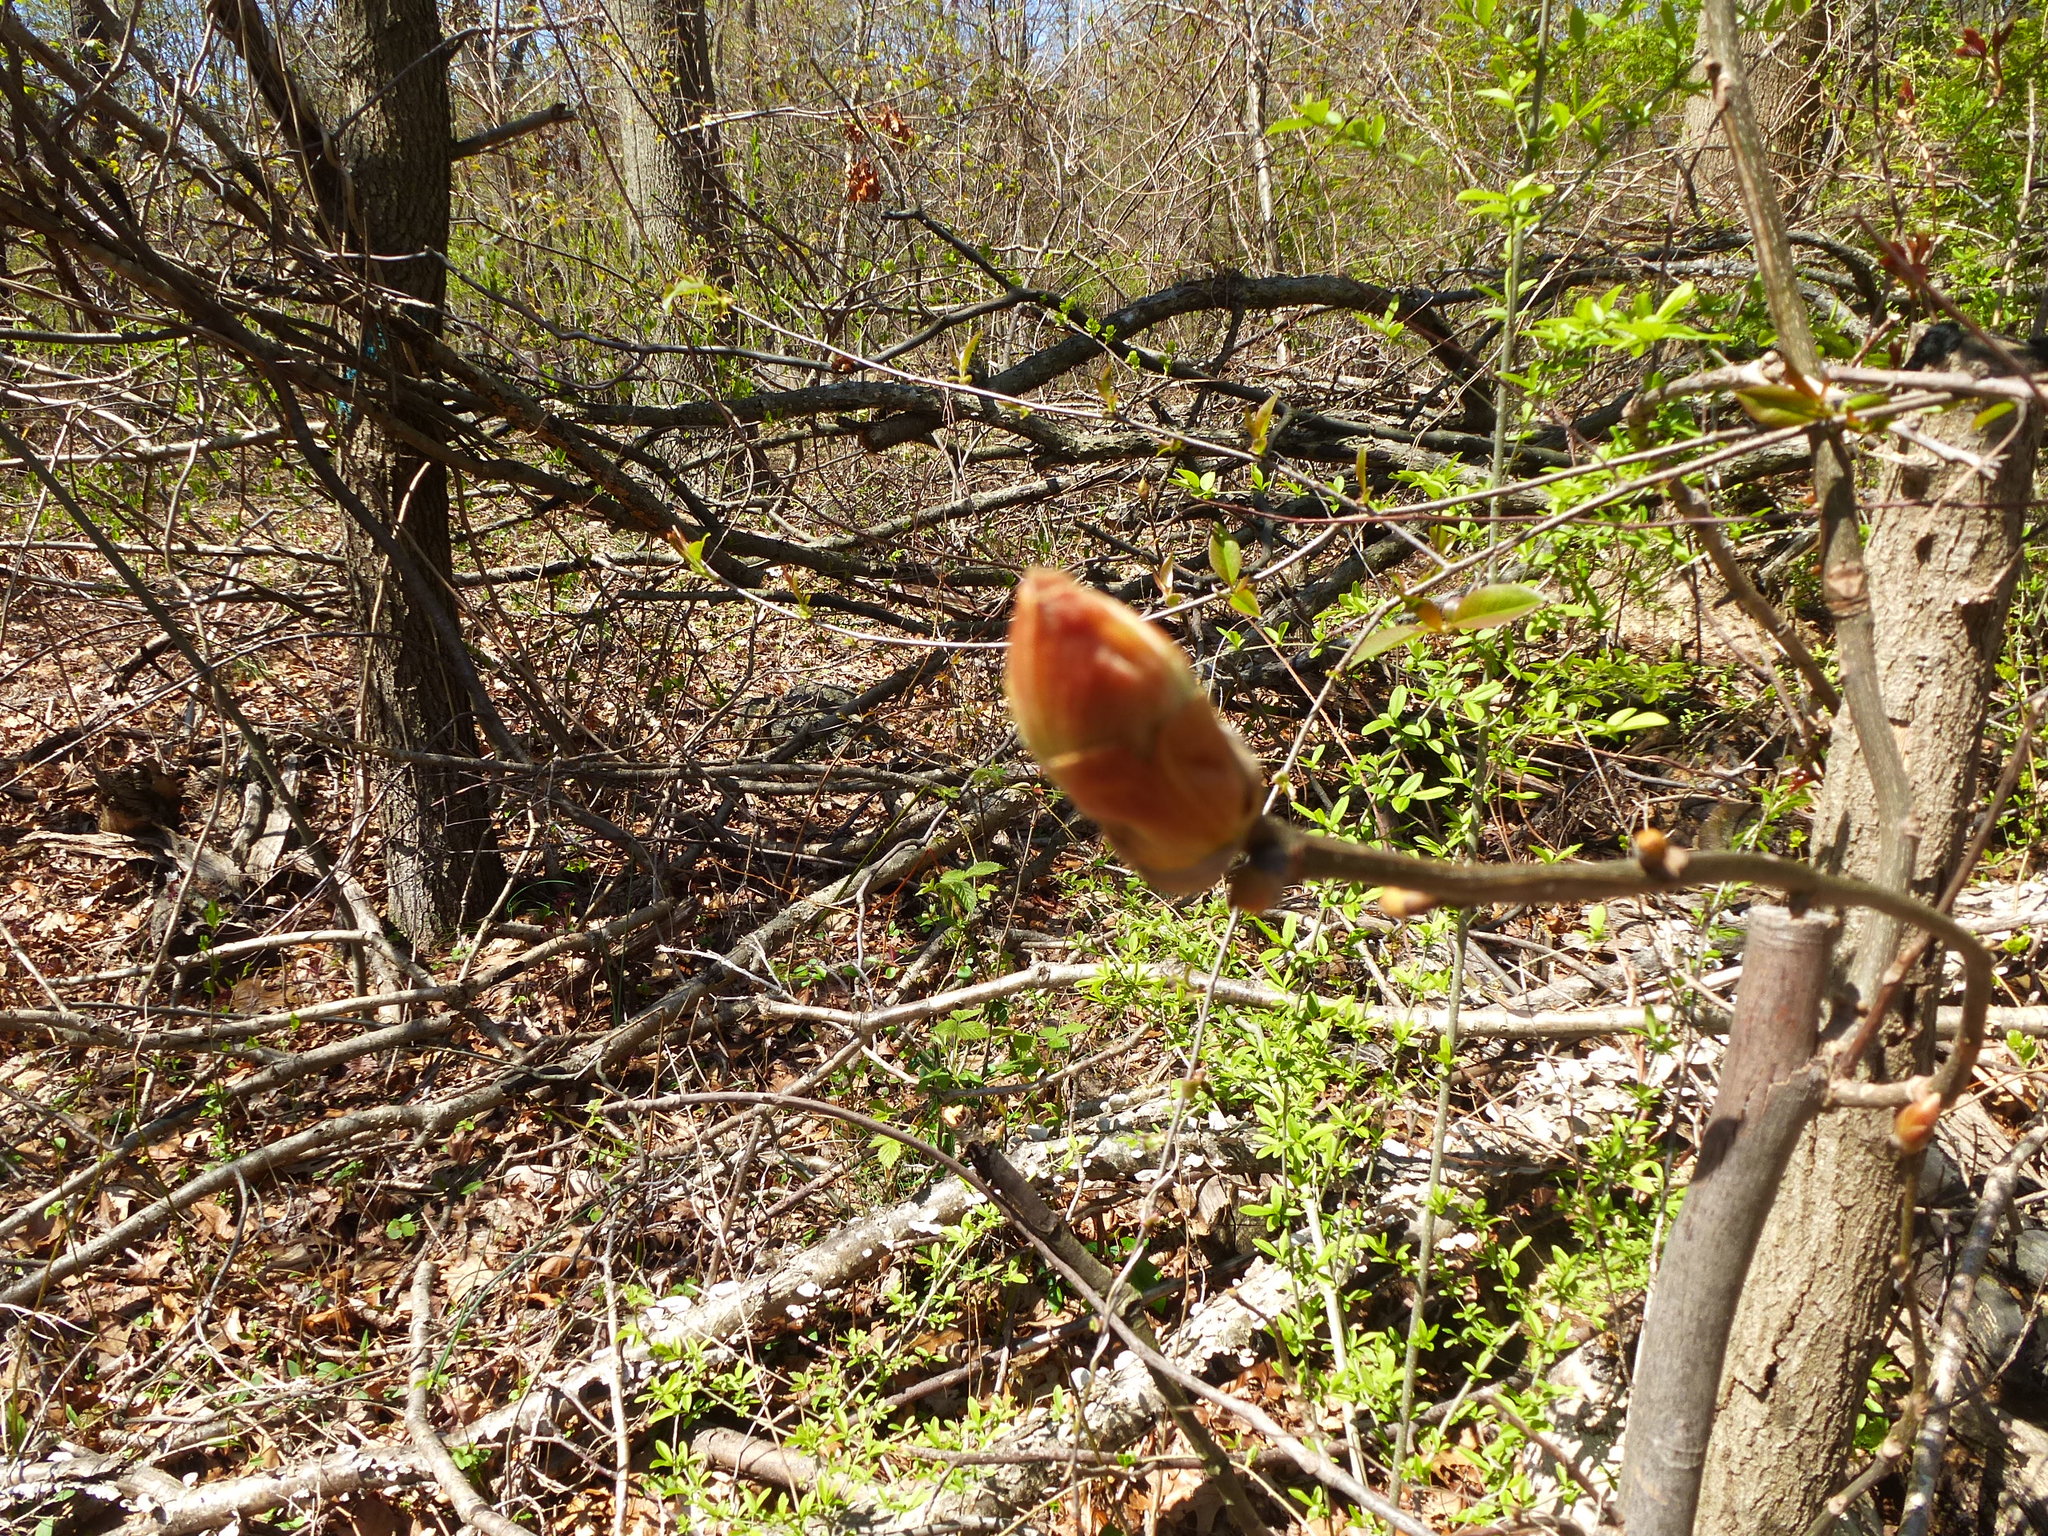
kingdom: Plantae
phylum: Tracheophyta
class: Magnoliopsida
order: Sapindales
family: Anacardiaceae
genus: Rhus
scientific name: Rhus
